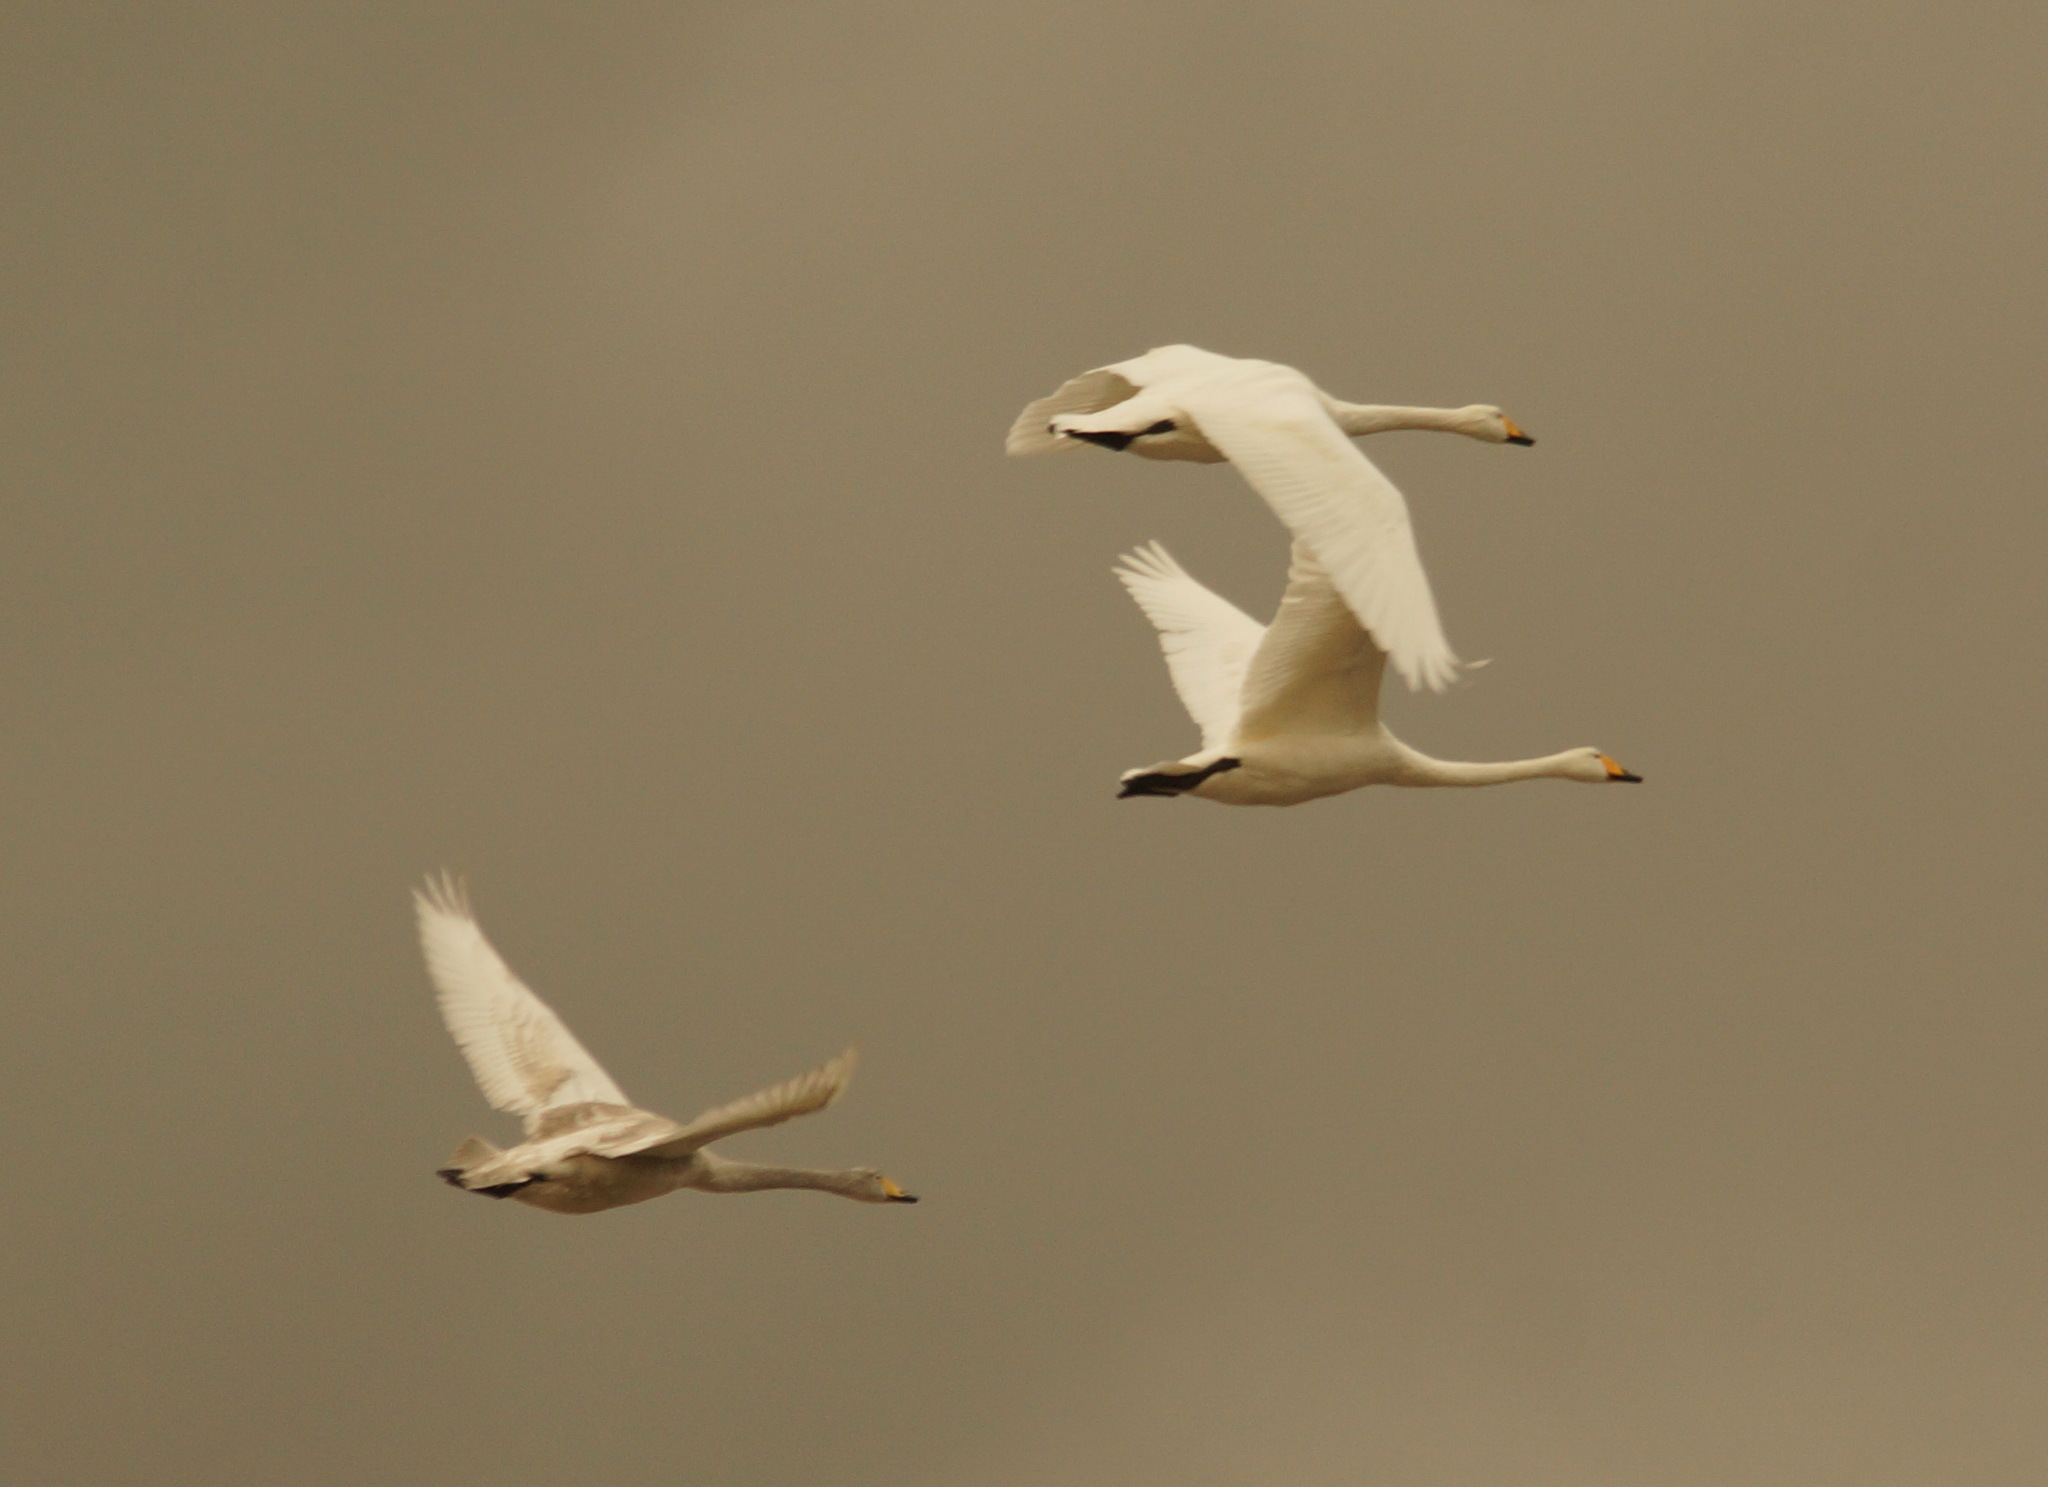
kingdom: Animalia
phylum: Chordata
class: Aves
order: Anseriformes
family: Anatidae
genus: Cygnus
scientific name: Cygnus cygnus
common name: Whooper swan
